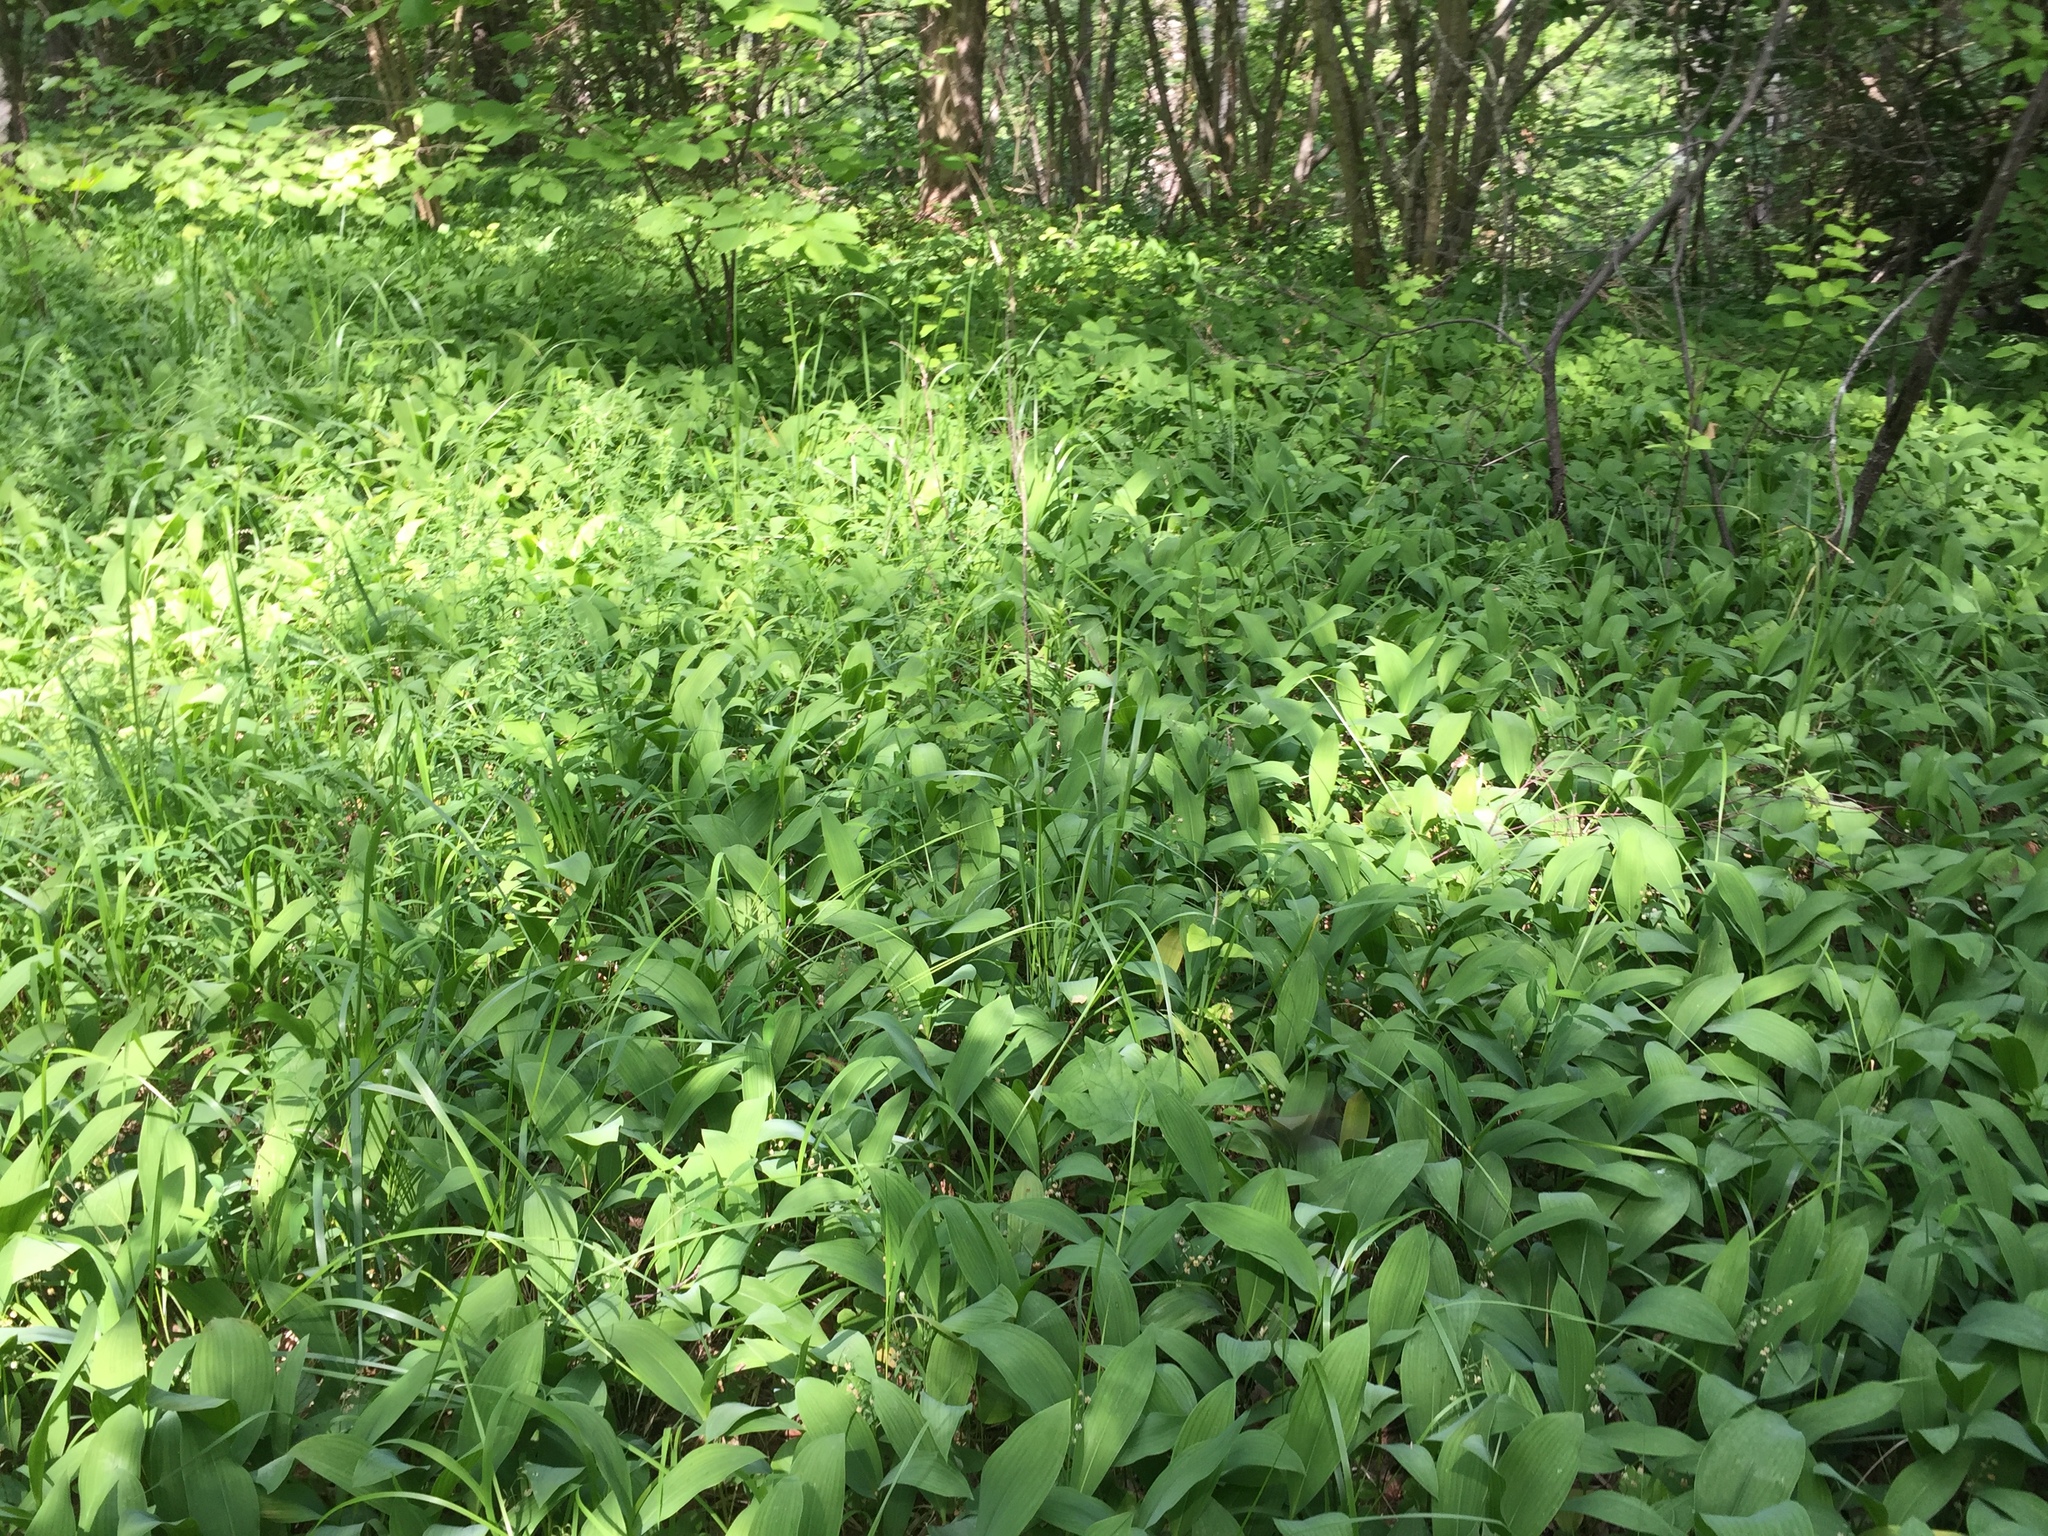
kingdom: Plantae
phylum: Tracheophyta
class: Liliopsida
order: Asparagales
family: Asparagaceae
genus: Convallaria
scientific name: Convallaria majalis
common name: Lily-of-the-valley
